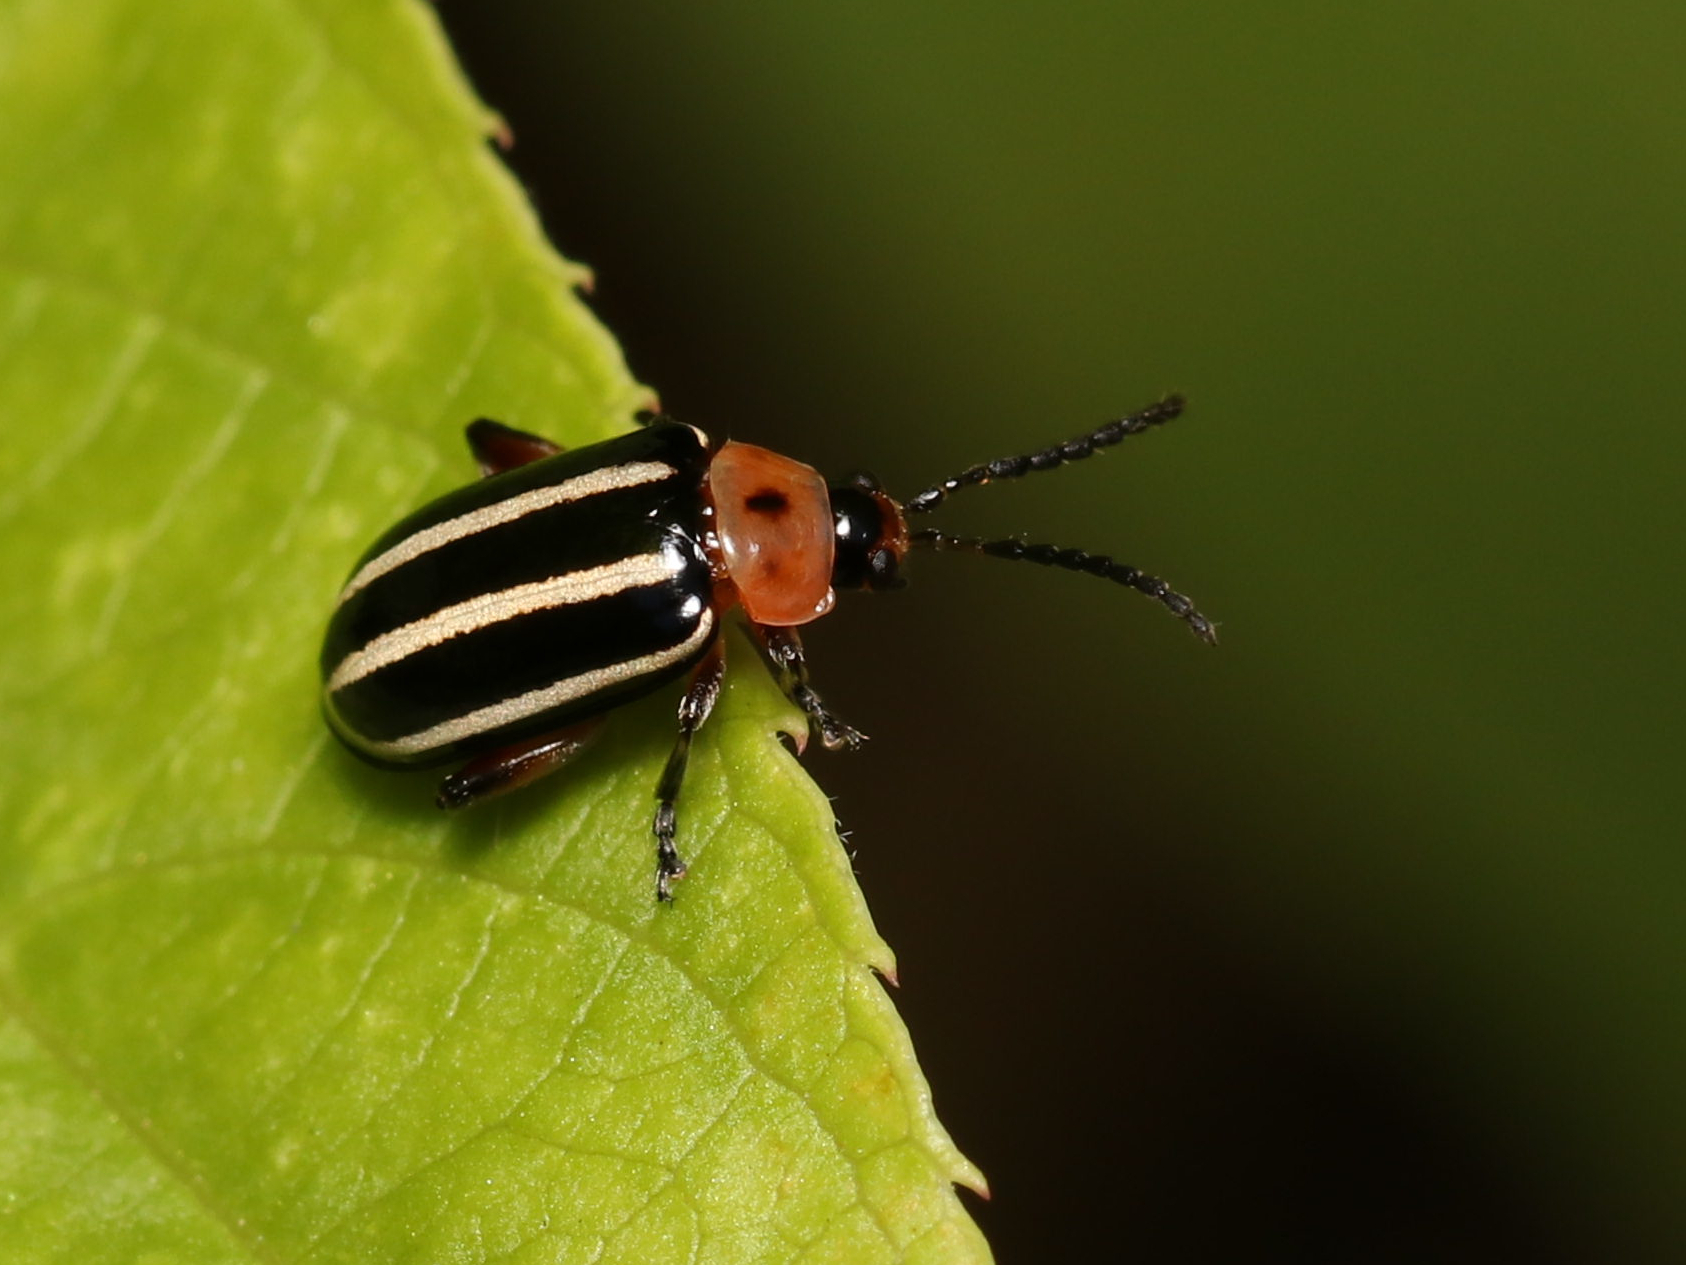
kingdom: Animalia
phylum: Arthropoda
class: Insecta
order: Coleoptera
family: Chrysomelidae
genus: Disonycha
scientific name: Disonycha glabrata
